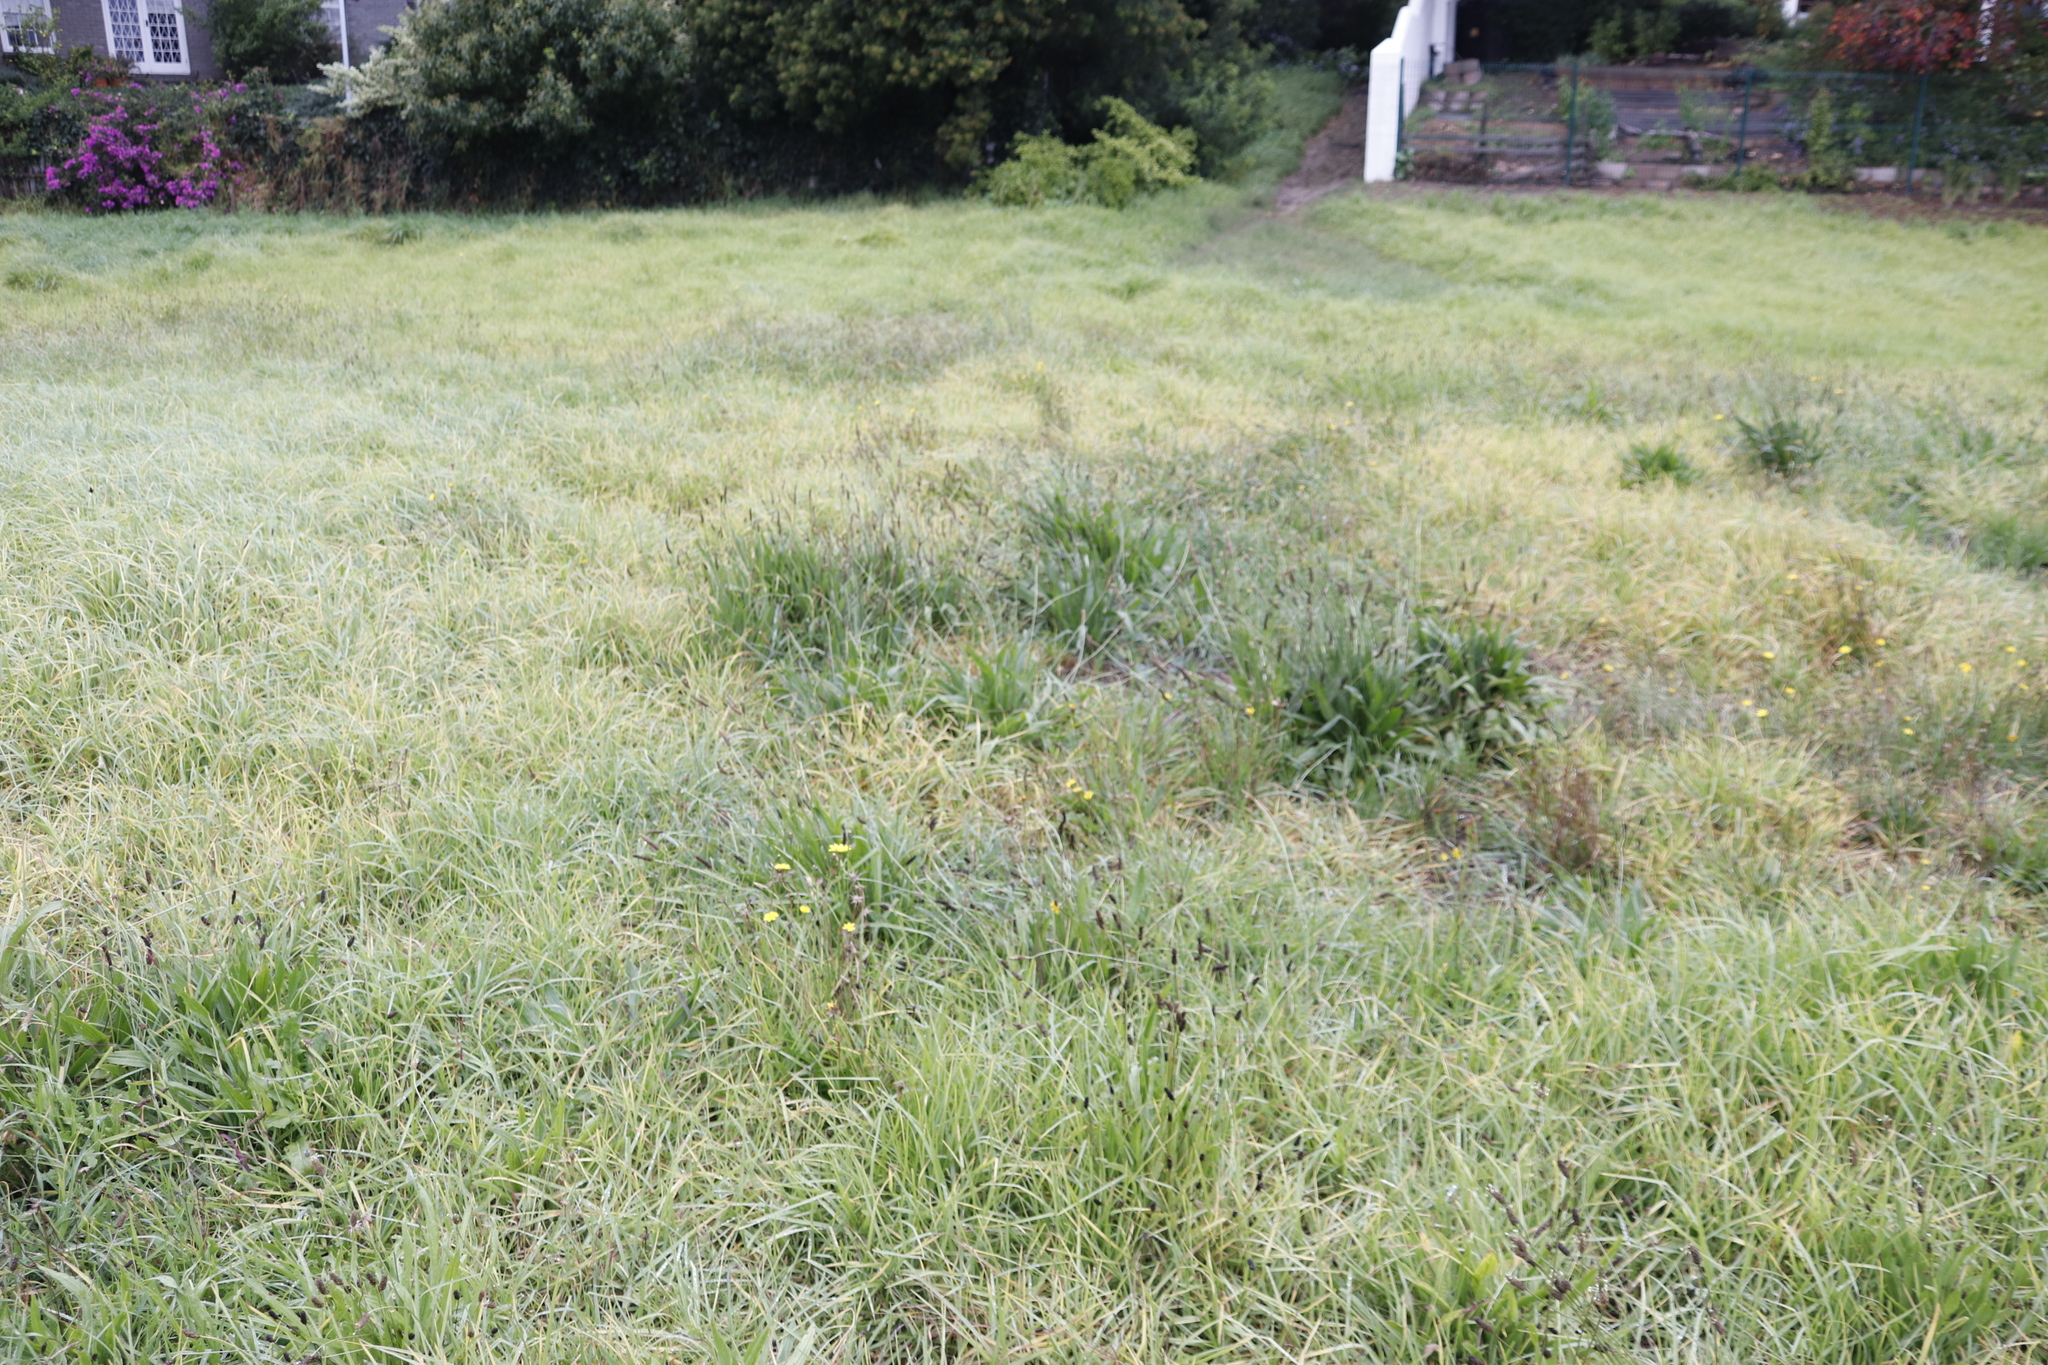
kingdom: Plantae
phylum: Tracheophyta
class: Magnoliopsida
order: Lamiales
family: Plantaginaceae
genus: Plantago
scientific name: Plantago lanceolata
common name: Ribwort plantain
